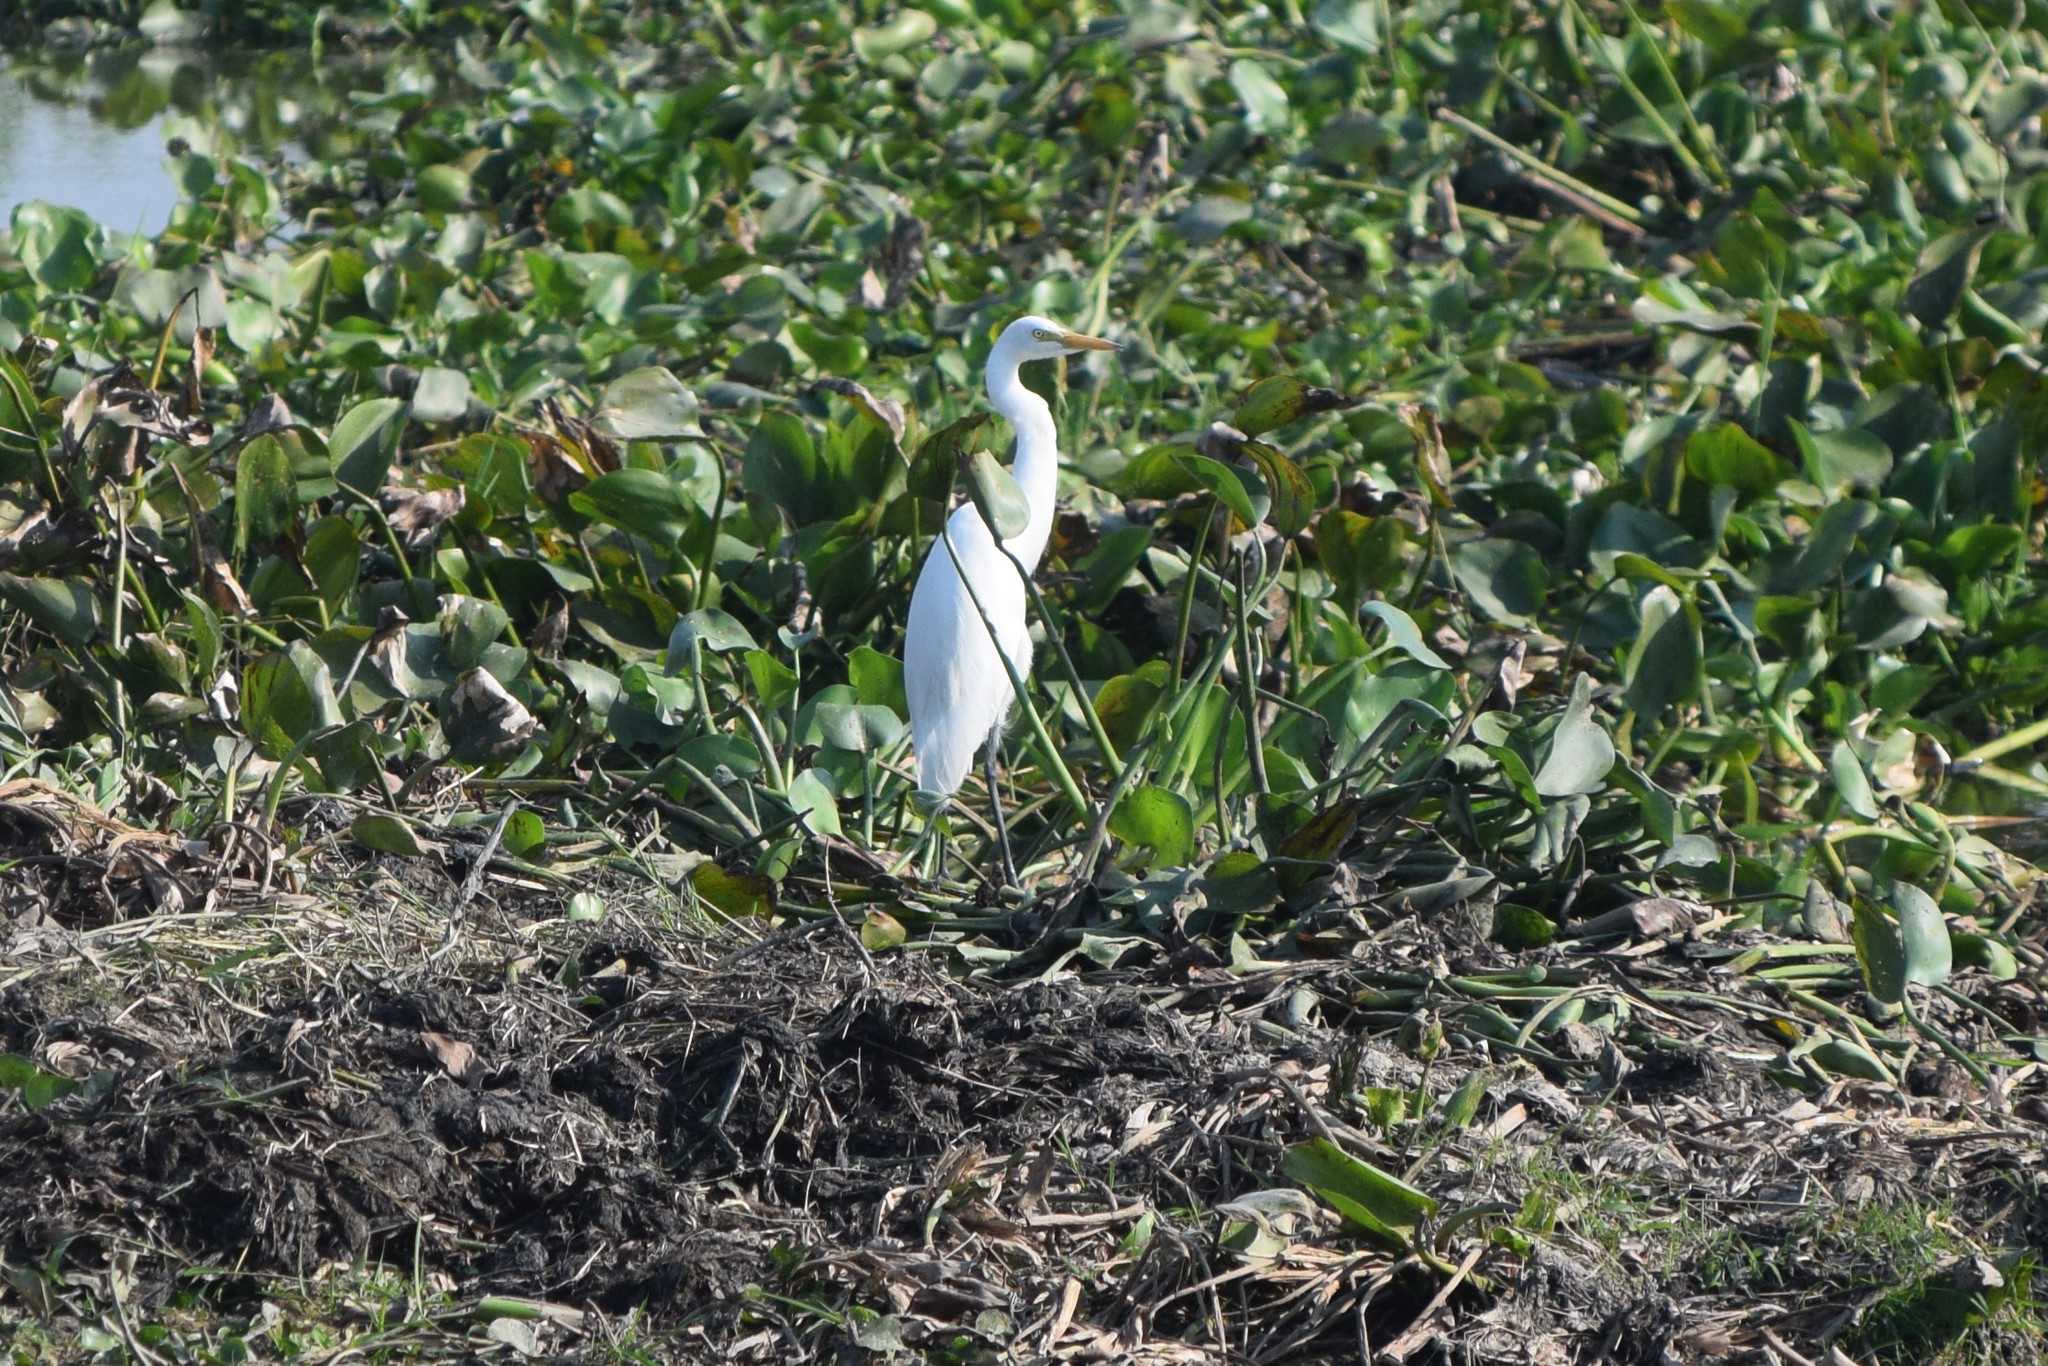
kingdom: Animalia
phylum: Chordata
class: Aves
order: Pelecaniformes
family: Ardeidae
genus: Ardea
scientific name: Ardea alba
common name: Great egret
